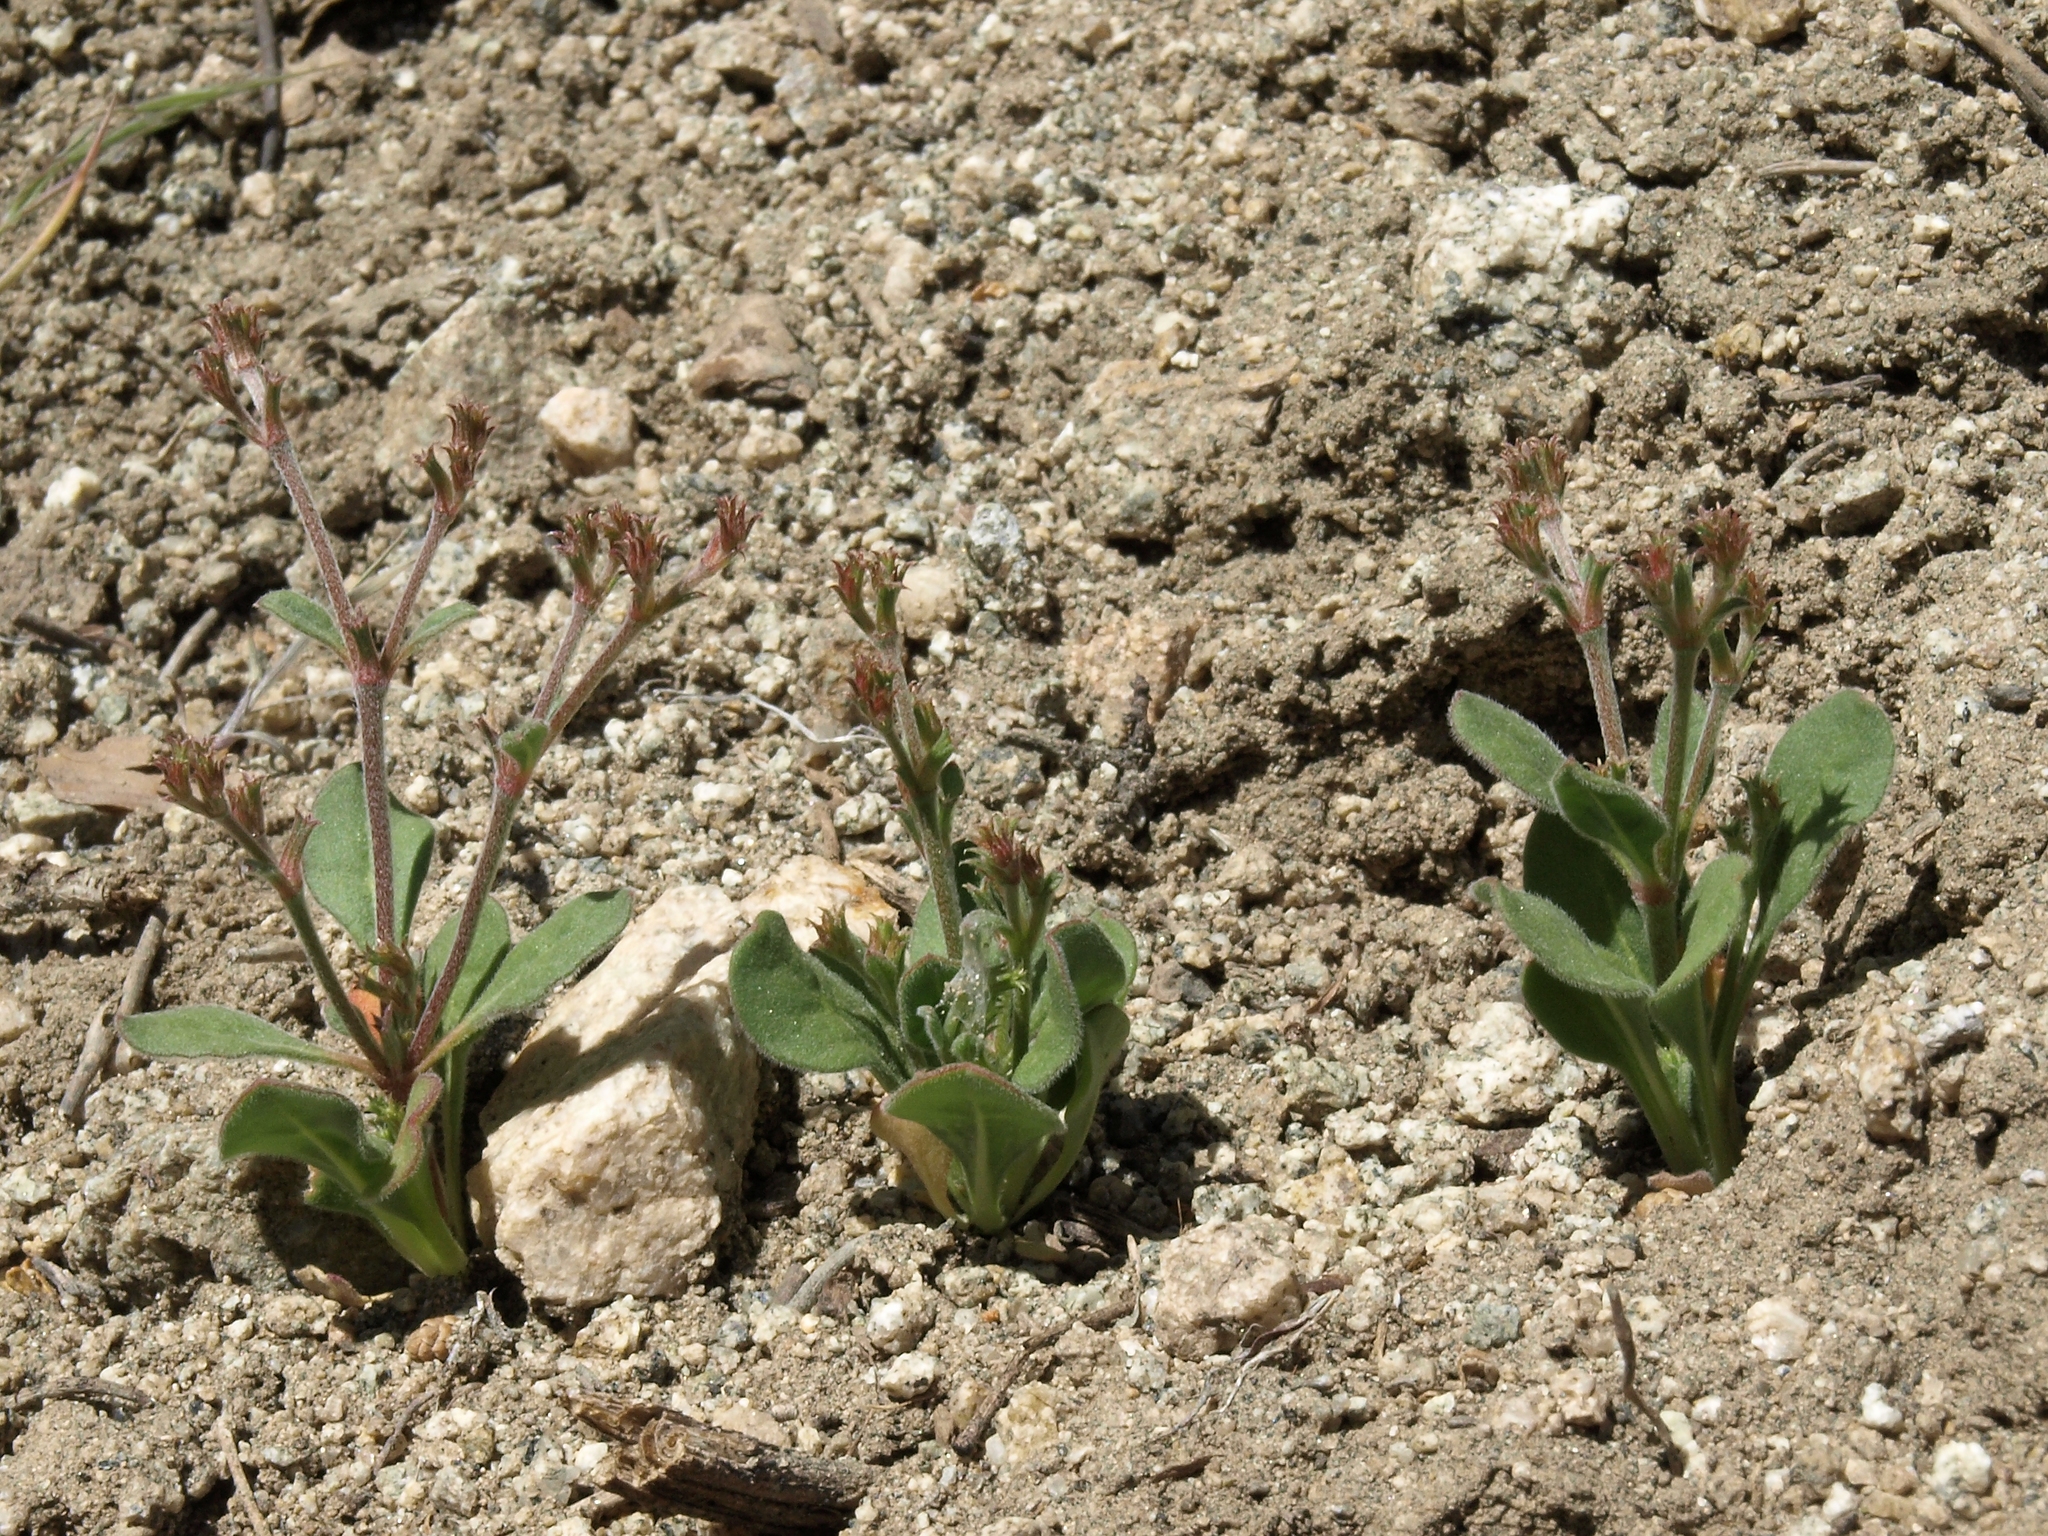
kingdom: Plantae
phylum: Tracheophyta
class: Magnoliopsida
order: Caryophyllales
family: Polygonaceae
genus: Chorizanthe
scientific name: Chorizanthe brevicornu
